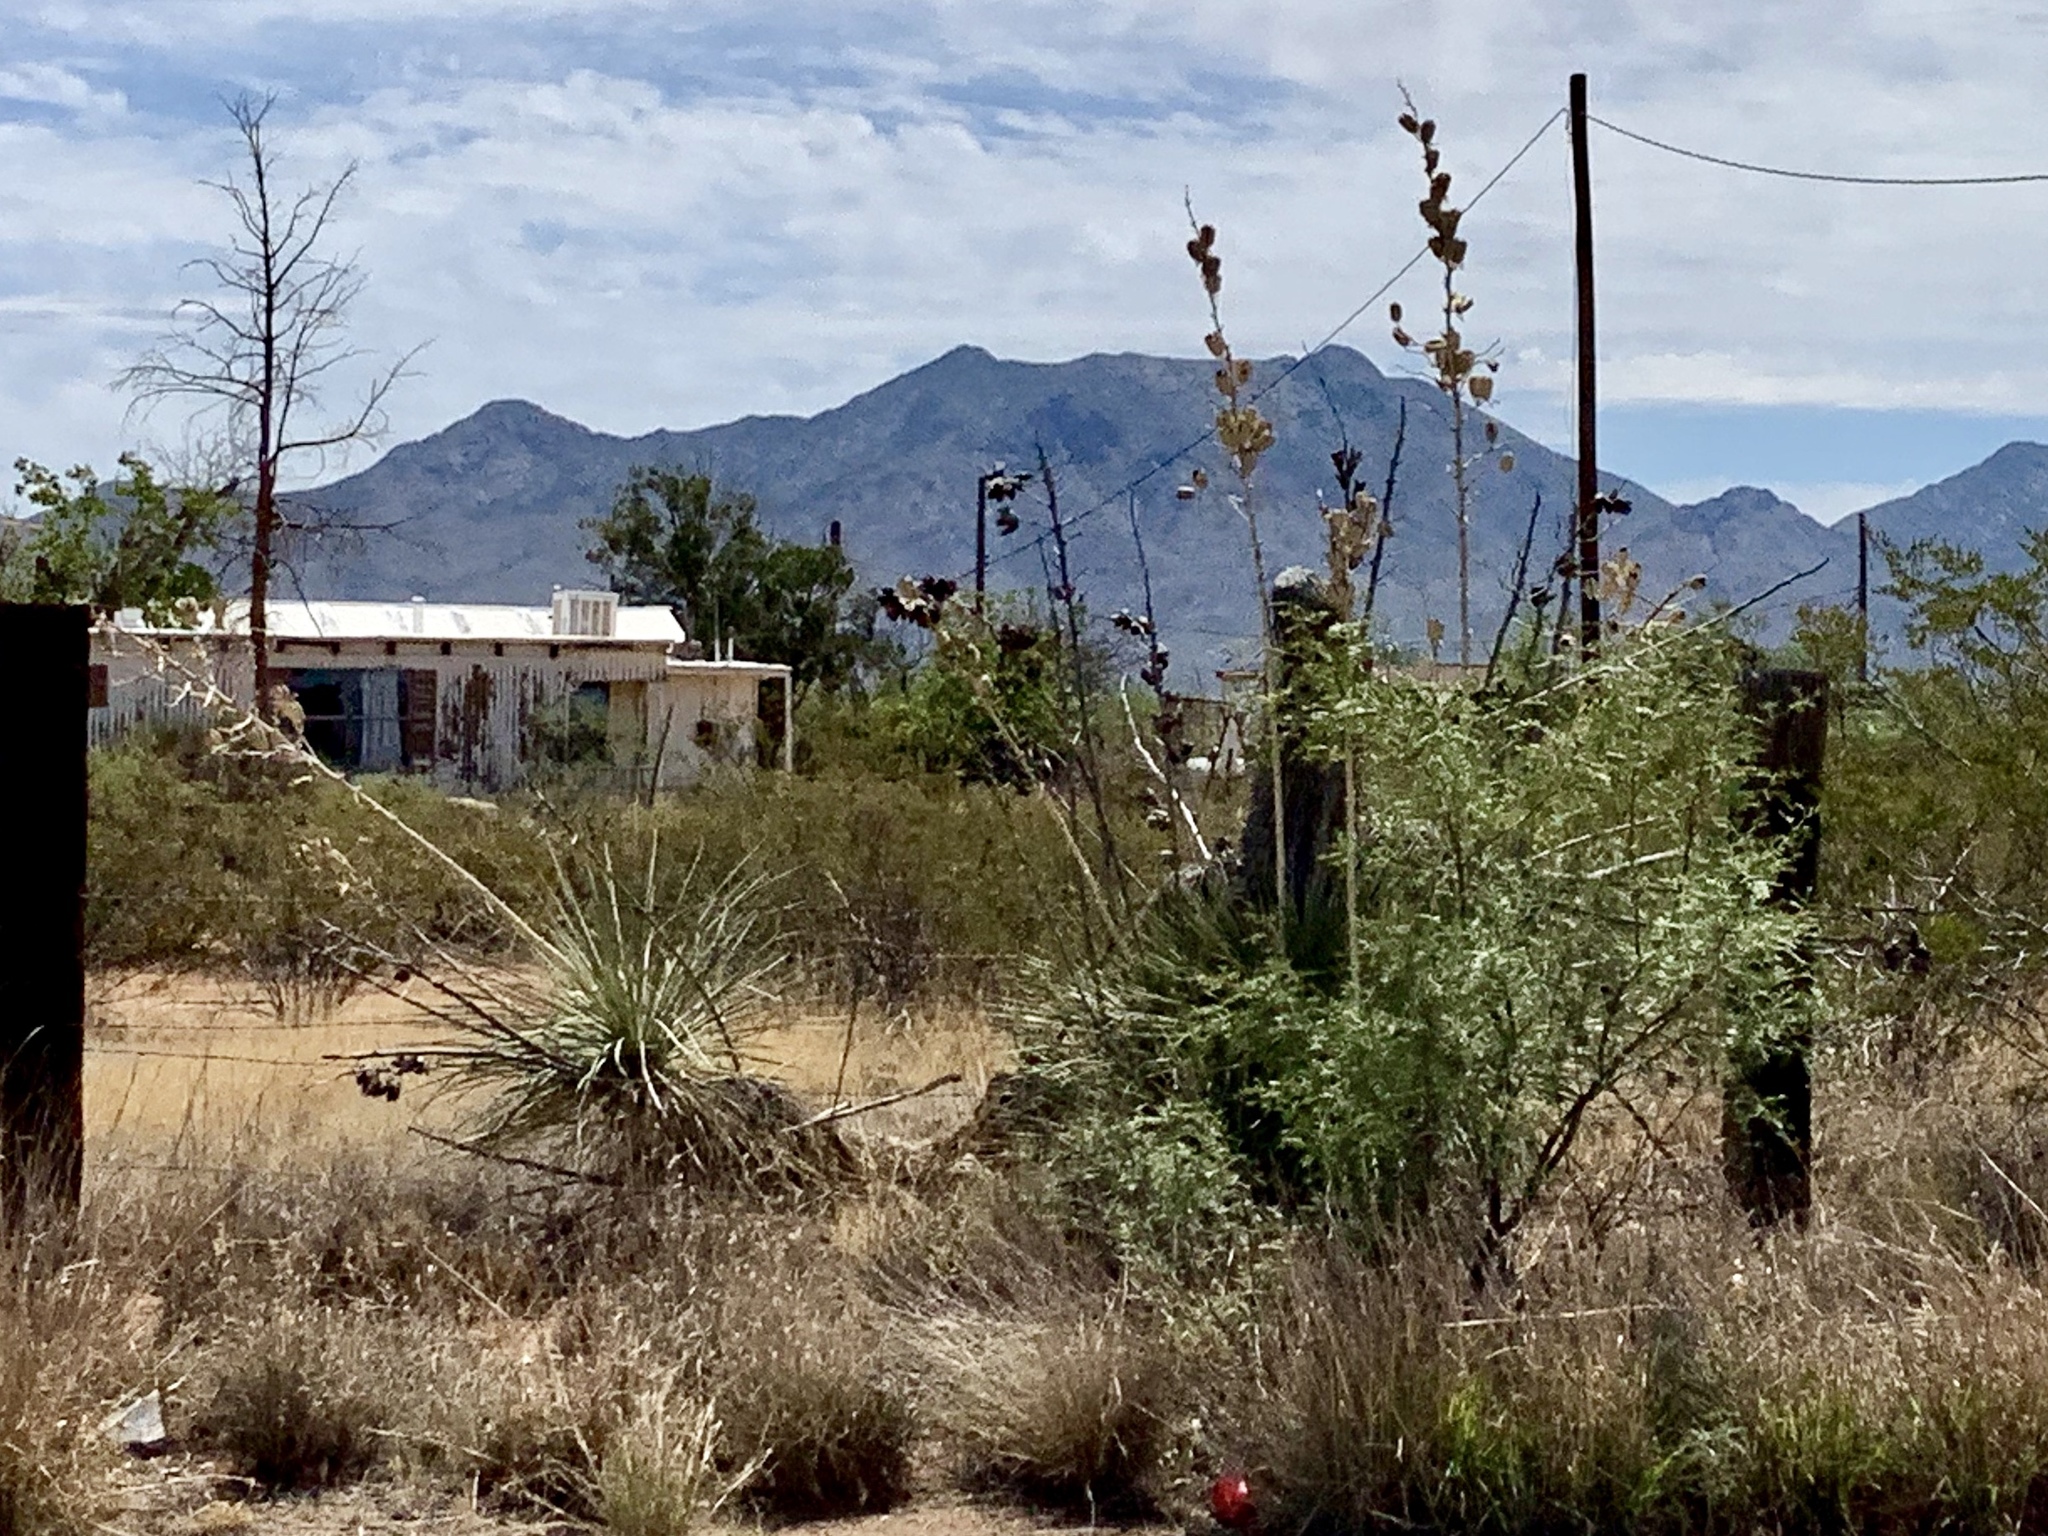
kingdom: Plantae
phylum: Tracheophyta
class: Liliopsida
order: Asparagales
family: Asparagaceae
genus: Yucca
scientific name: Yucca elata
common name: Palmella
